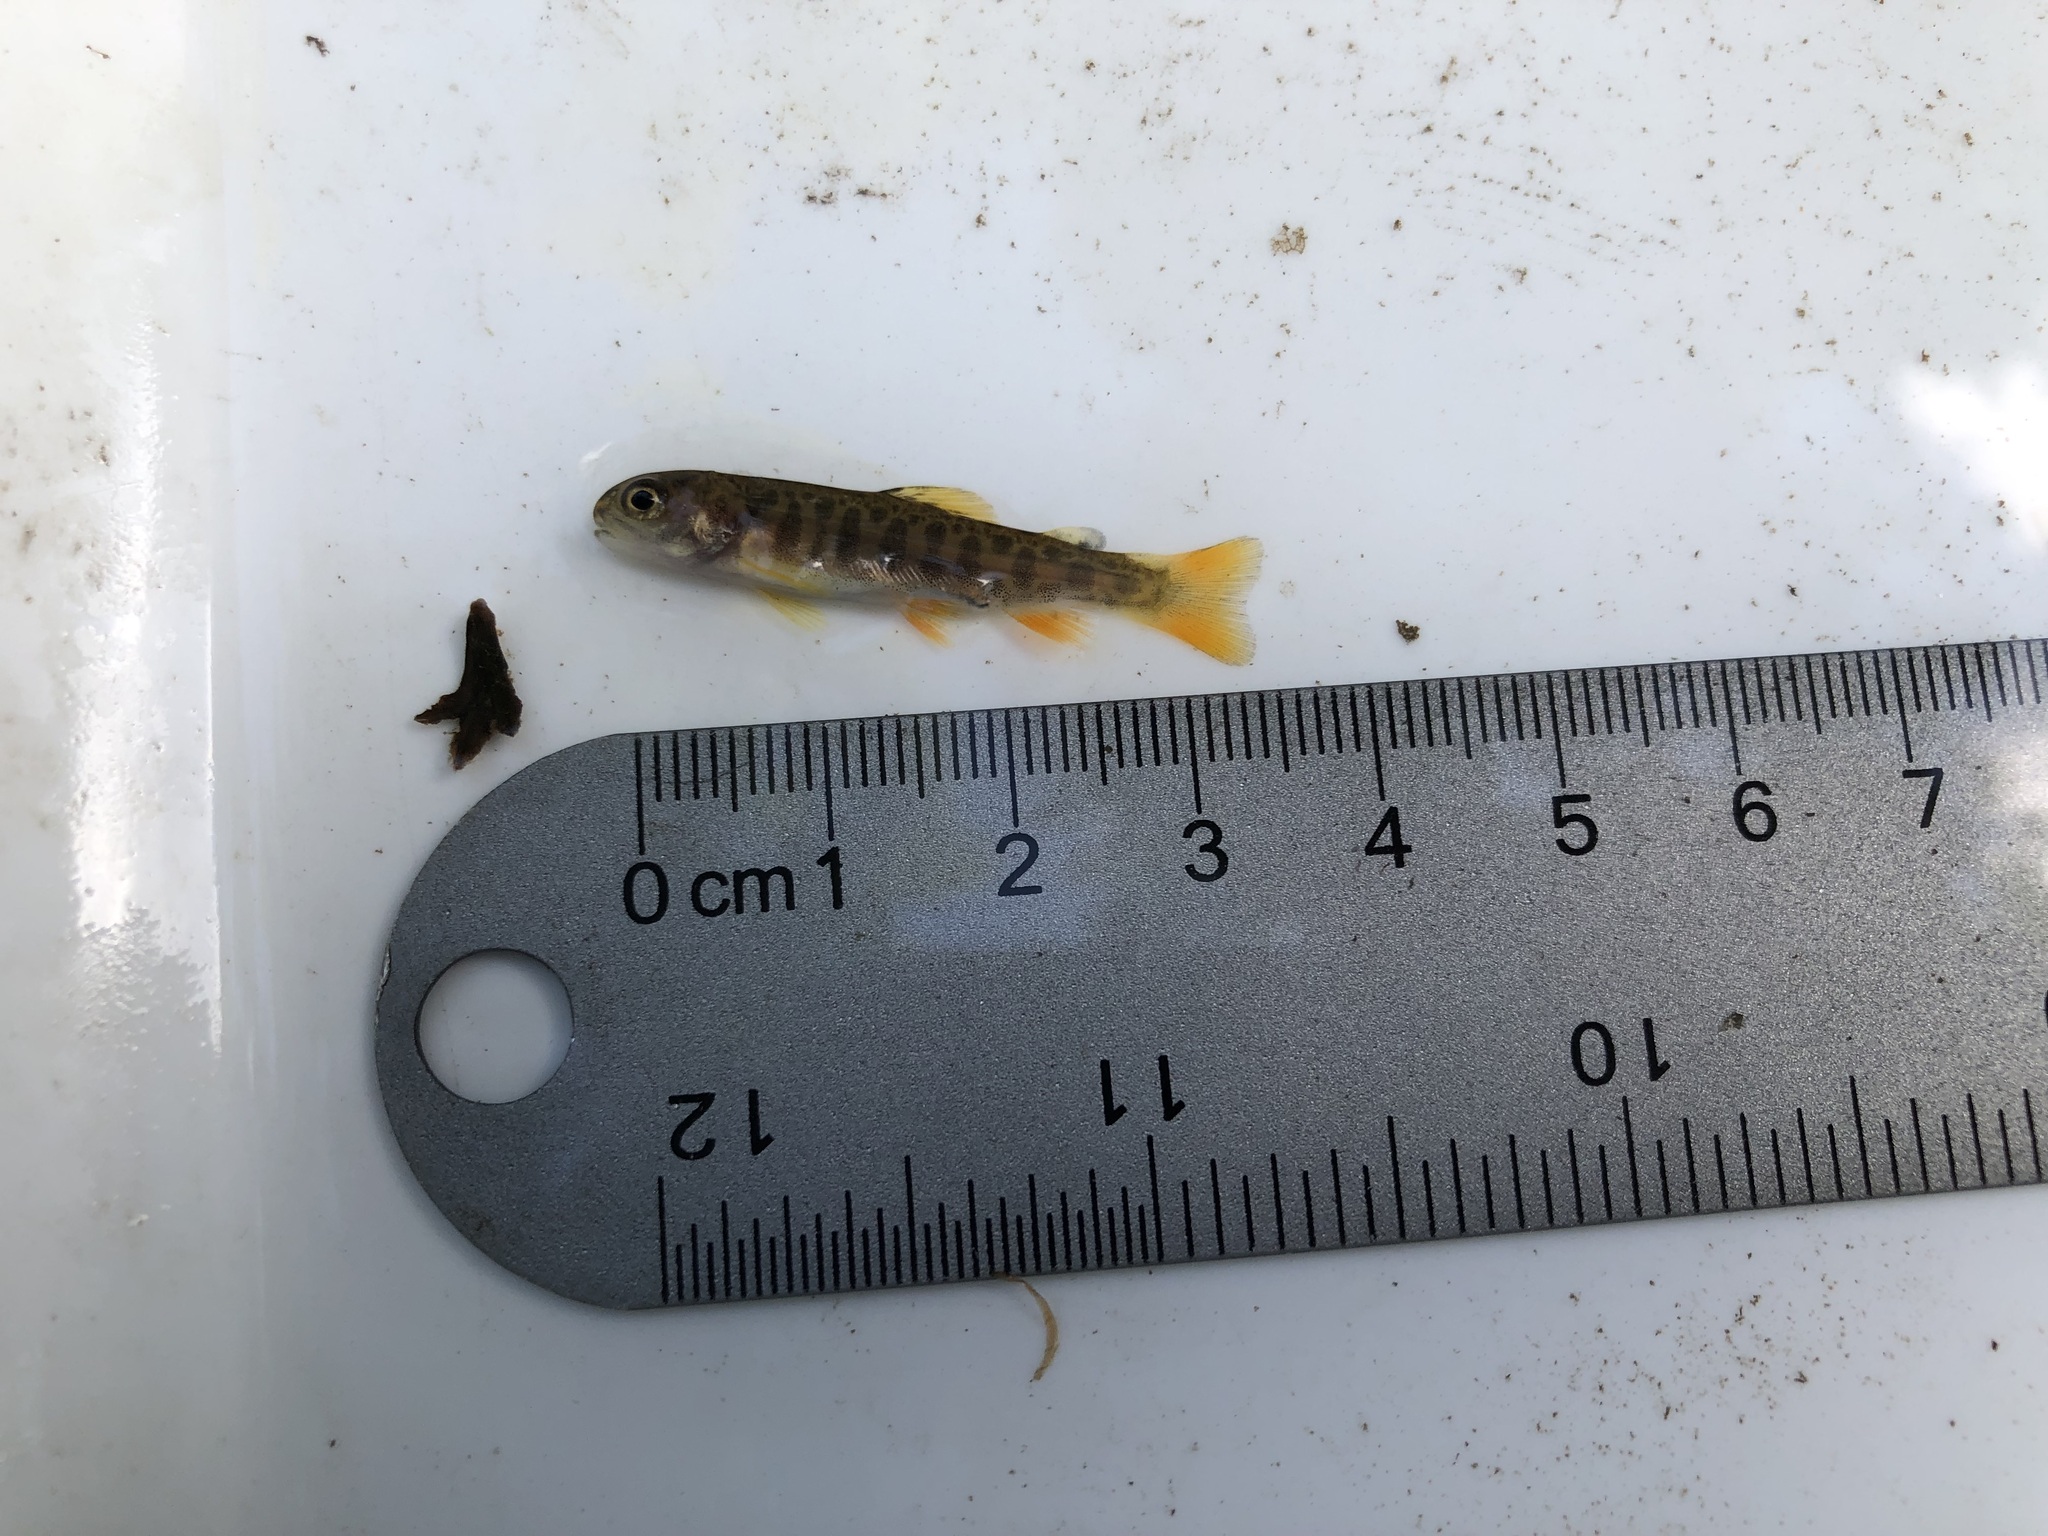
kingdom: Animalia
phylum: Chordata
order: Salmoniformes
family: Salmonidae
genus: Salvelinus
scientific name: Salvelinus fontinalis
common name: Brook trout
